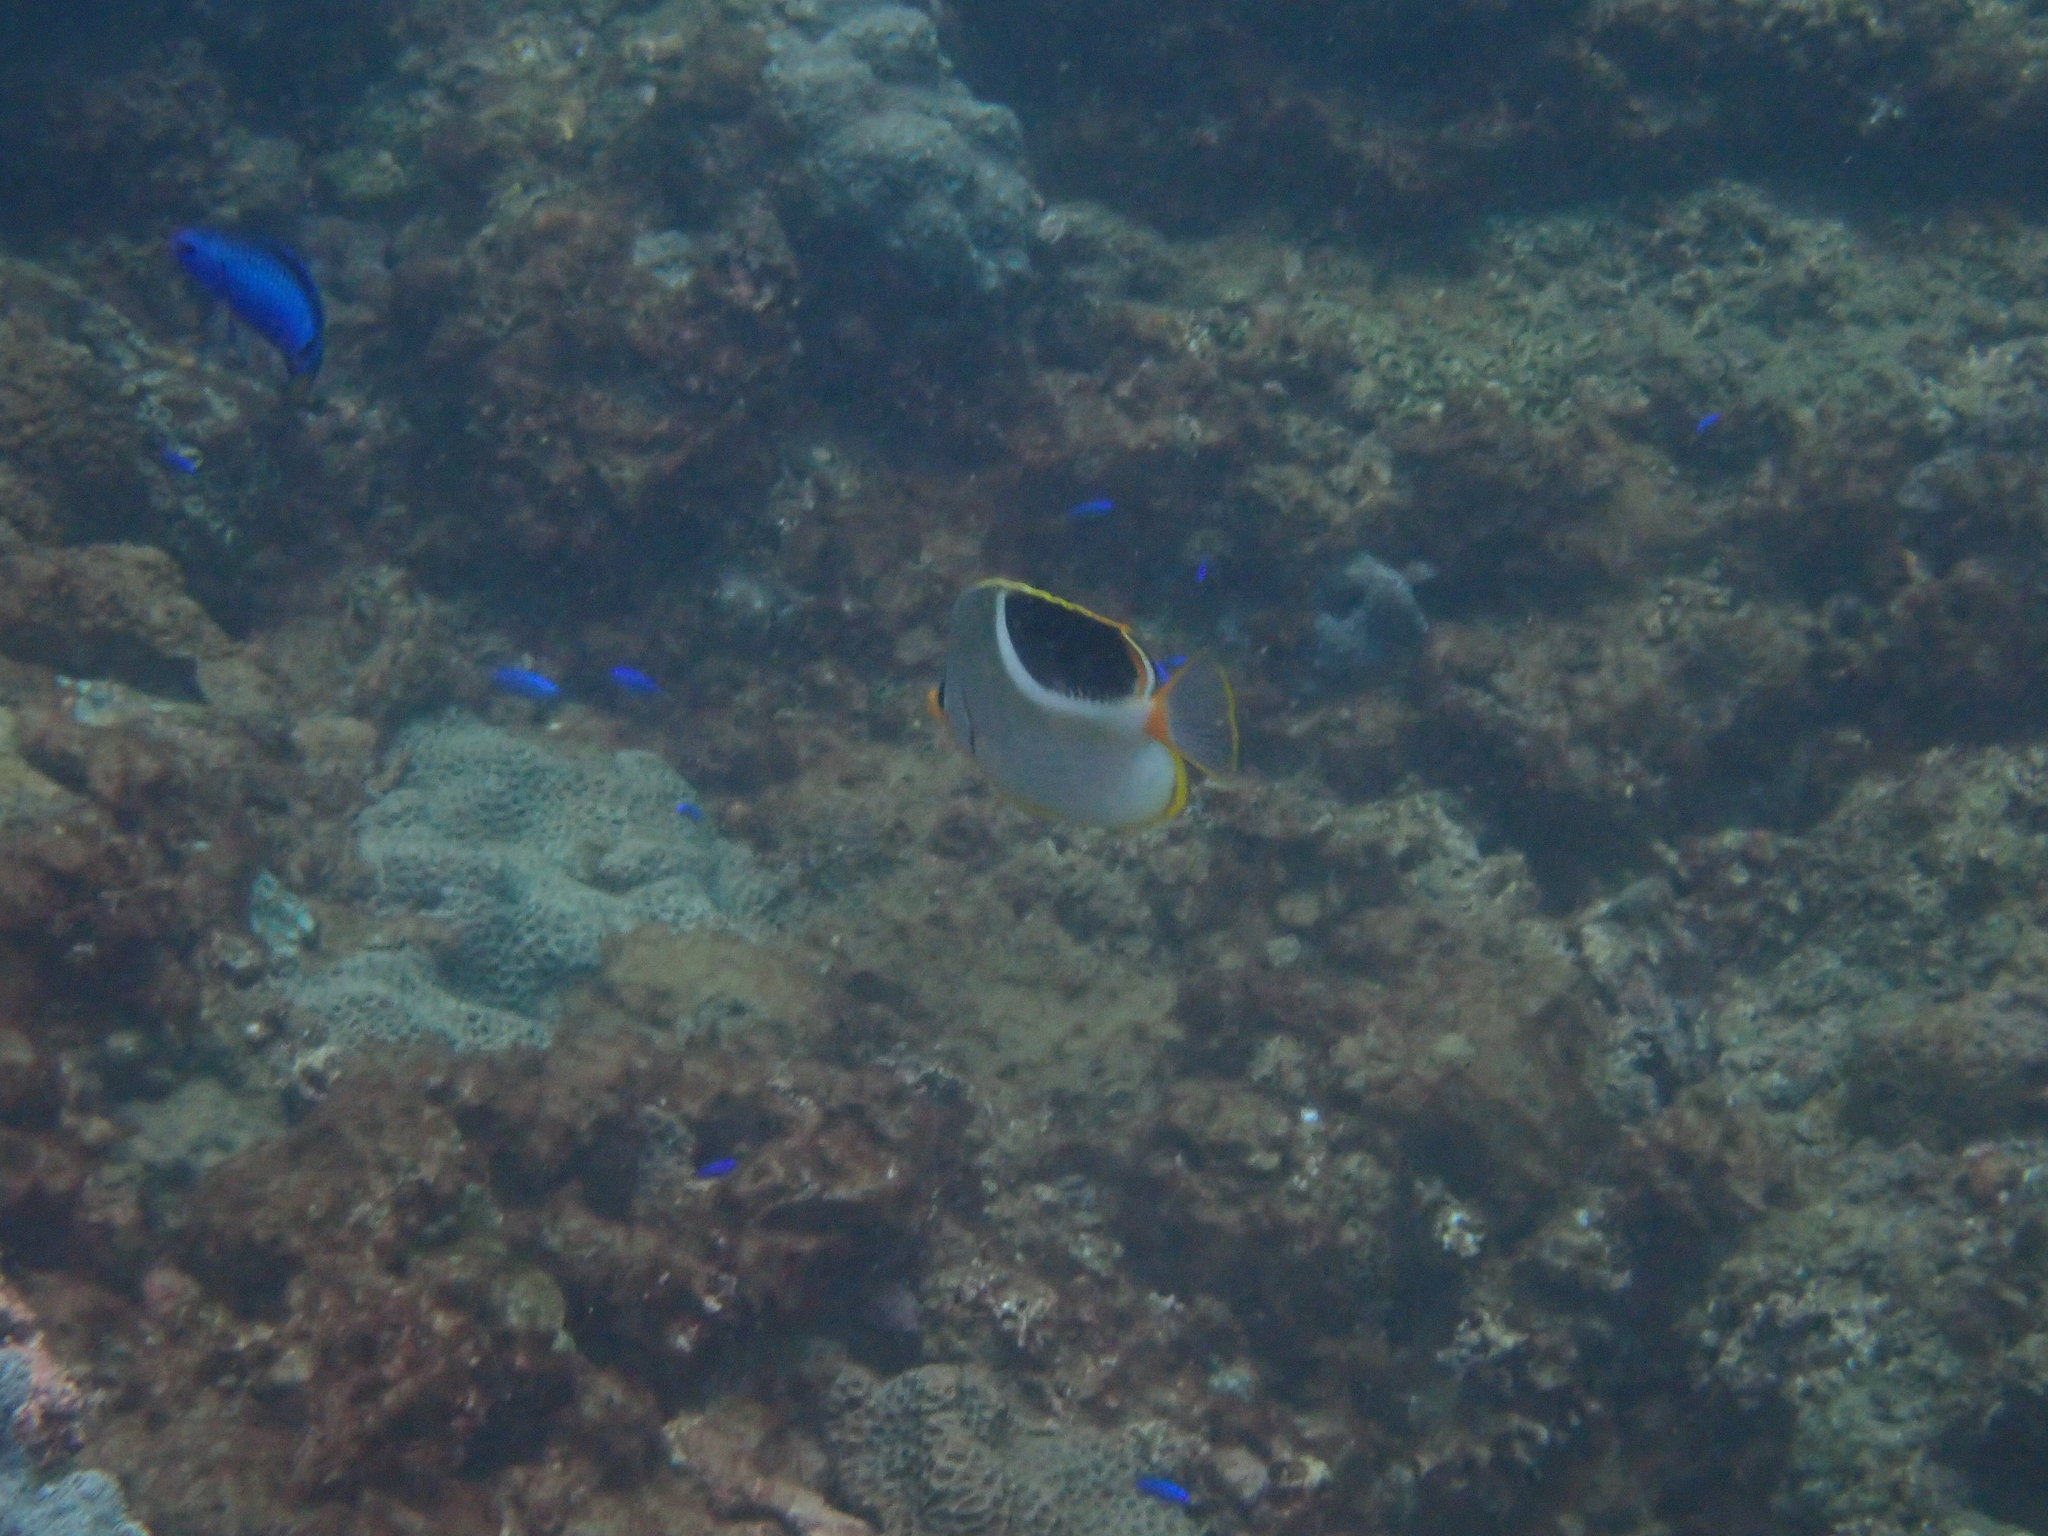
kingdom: Animalia
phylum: Chordata
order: Perciformes
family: Chaetodontidae
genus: Chaetodon
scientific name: Chaetodon ephippium
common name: Saddled butterflyfish
